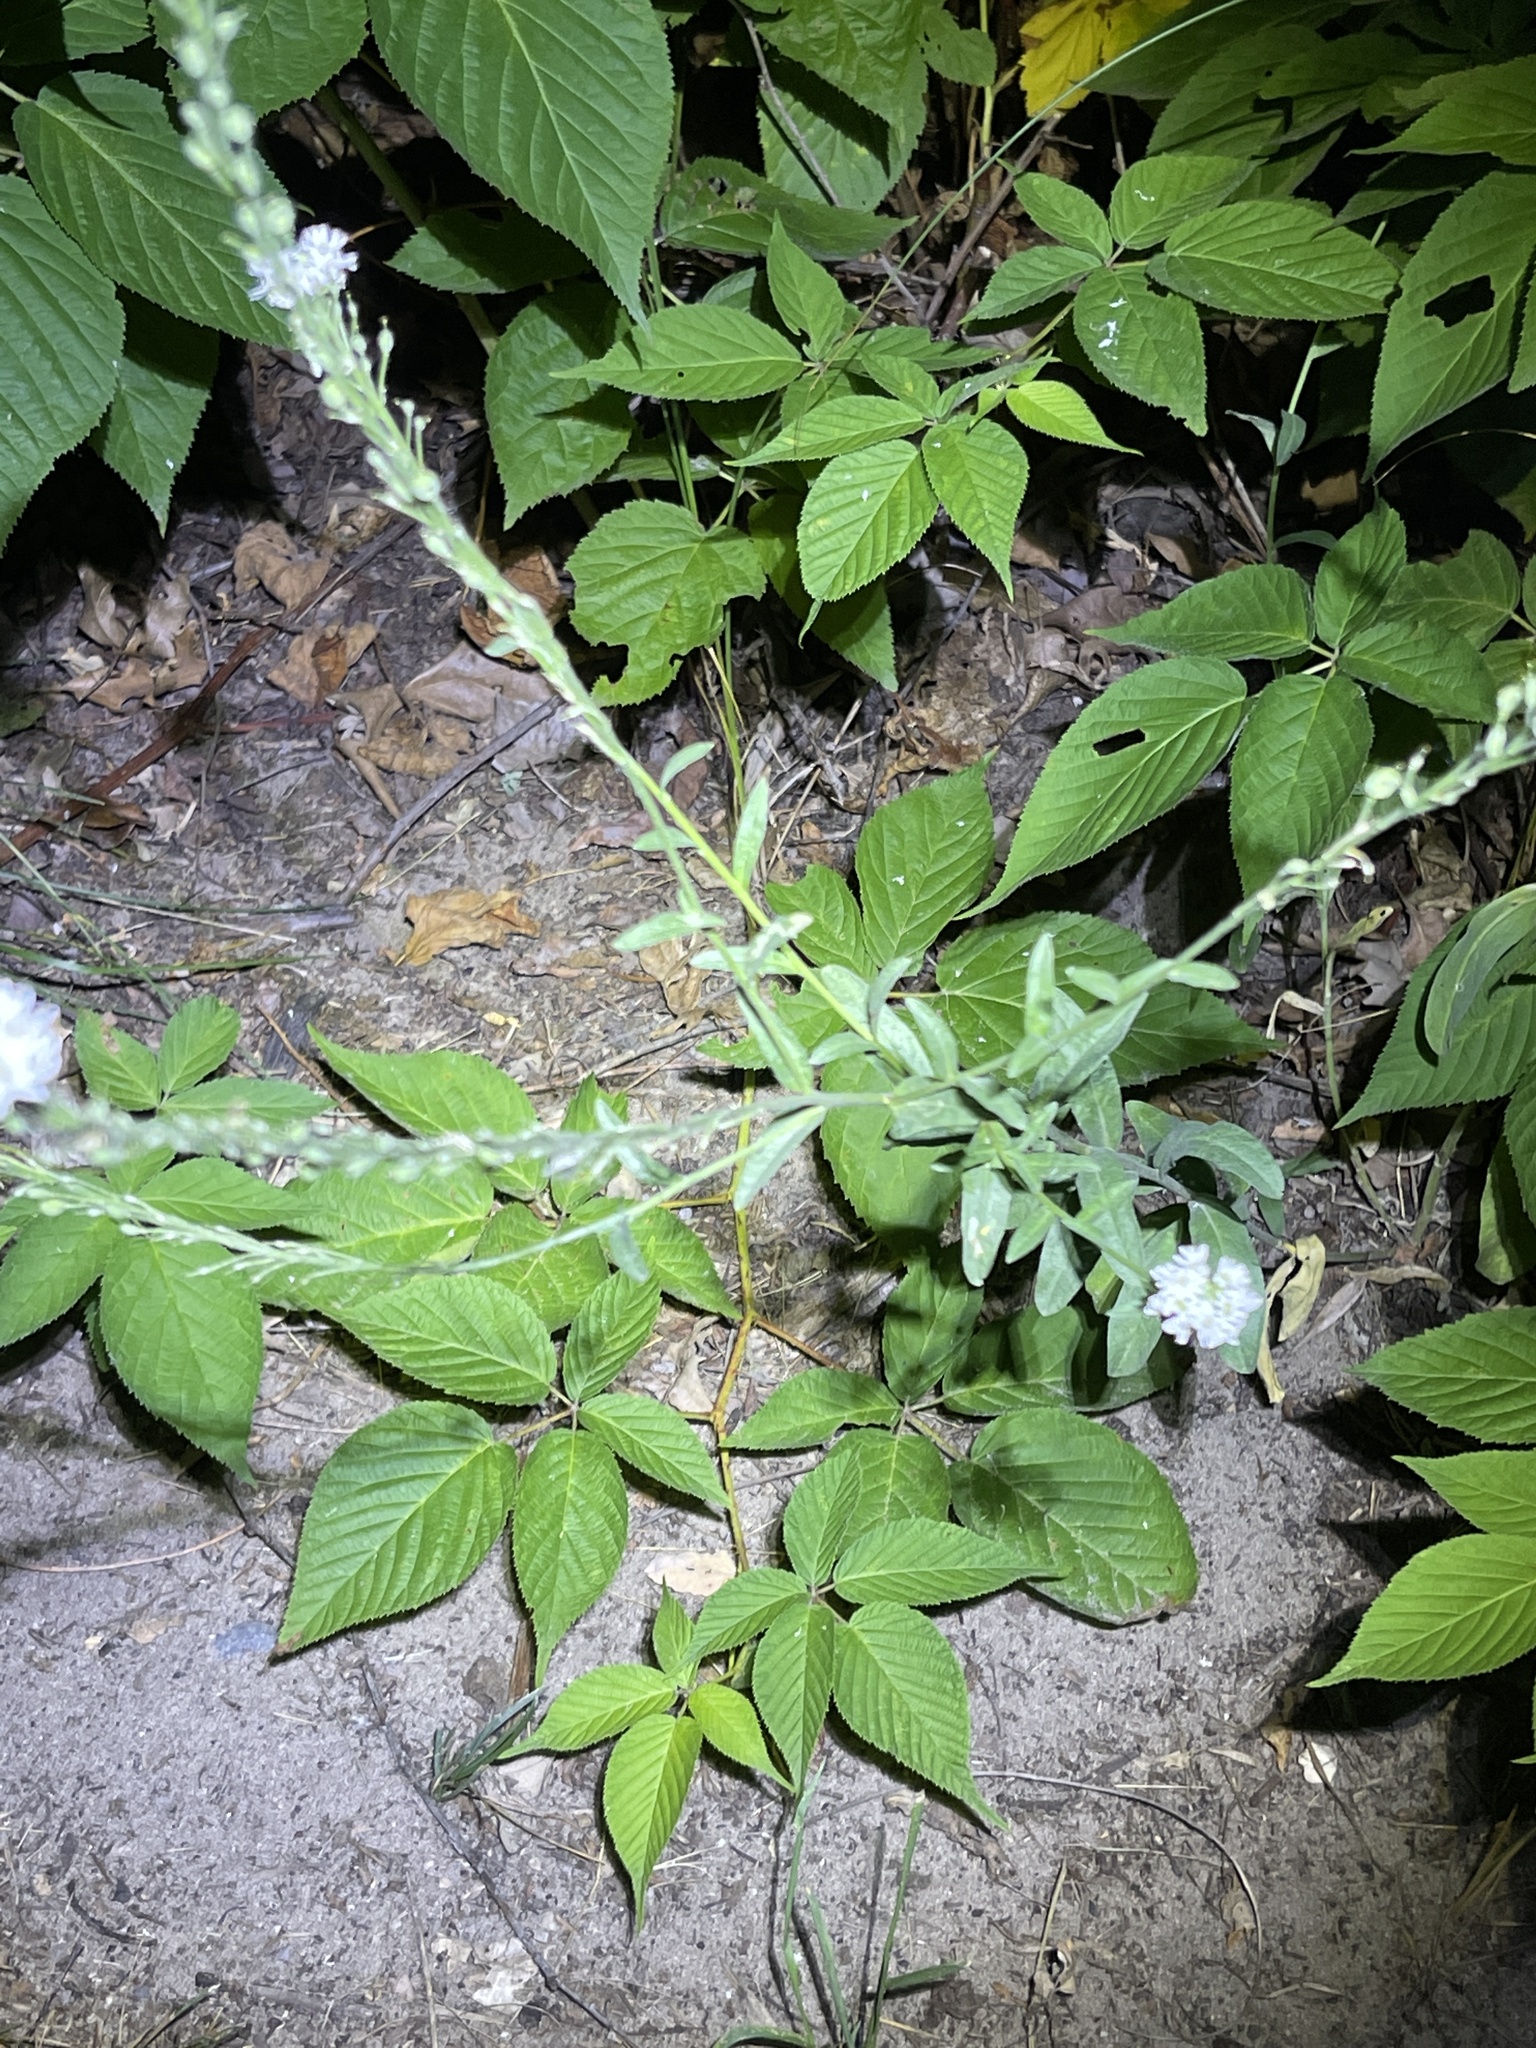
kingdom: Plantae
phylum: Tracheophyta
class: Magnoliopsida
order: Brassicales
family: Brassicaceae
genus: Berteroa
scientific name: Berteroa incana
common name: Hoary alison
